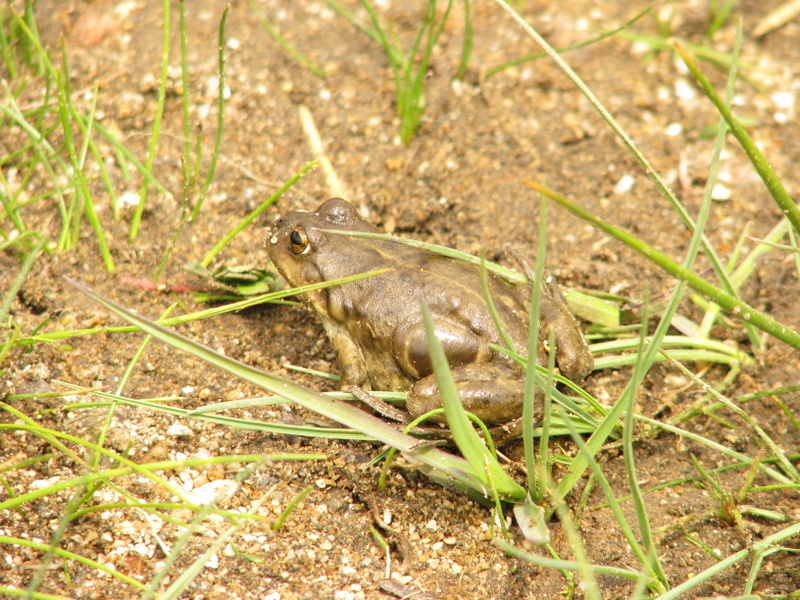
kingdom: Animalia
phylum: Chordata
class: Amphibia
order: Anura
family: Leptodactylidae
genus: Pleurodema
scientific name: Pleurodema bufoninum
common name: Large four-eyed frog
